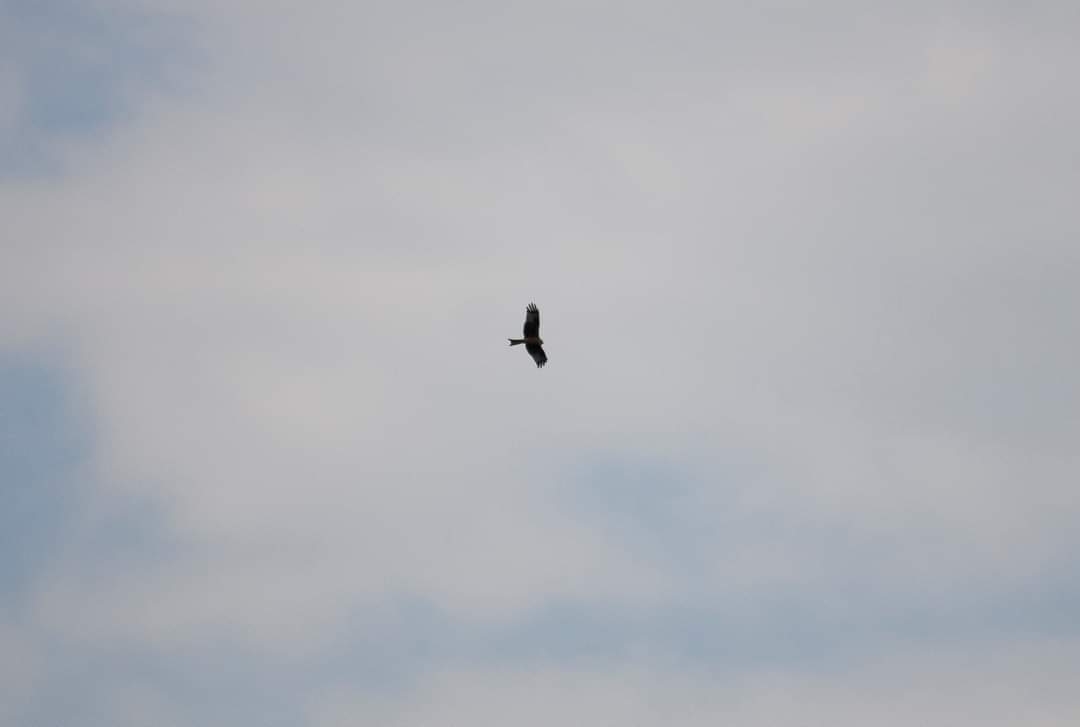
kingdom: Animalia
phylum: Chordata
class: Aves
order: Accipitriformes
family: Accipitridae
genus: Milvus
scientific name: Milvus milvus
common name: Red kite
